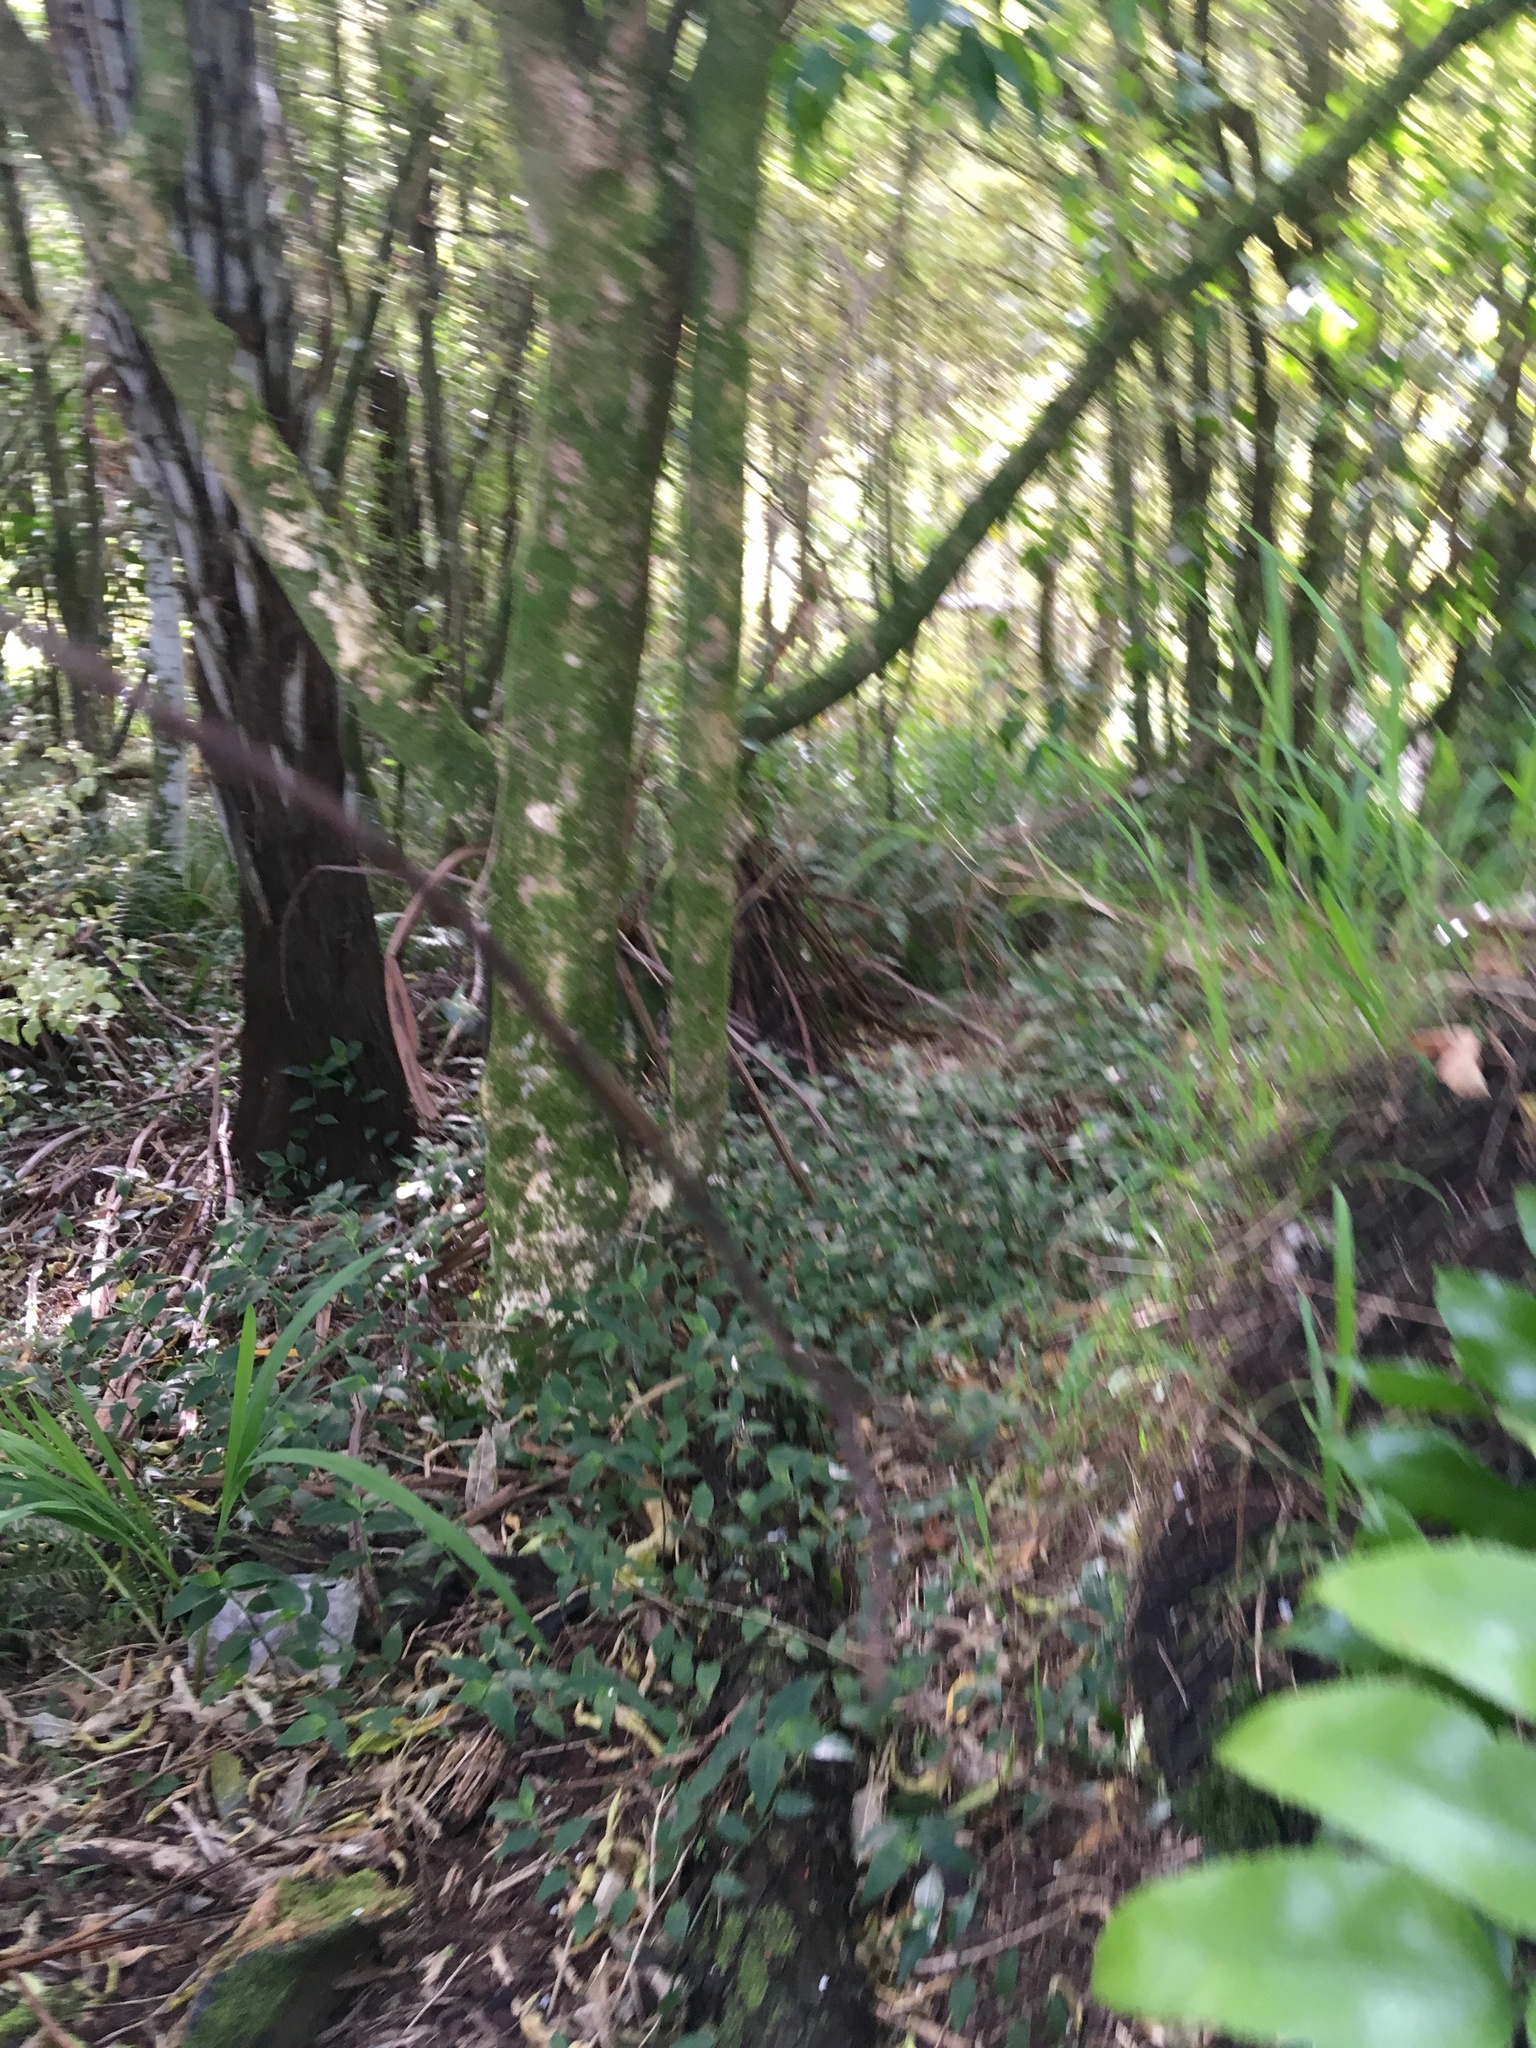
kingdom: Plantae
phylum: Tracheophyta
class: Liliopsida
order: Commelinales
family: Commelinaceae
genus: Tradescantia
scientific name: Tradescantia fluminensis
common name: Wandering-jew
